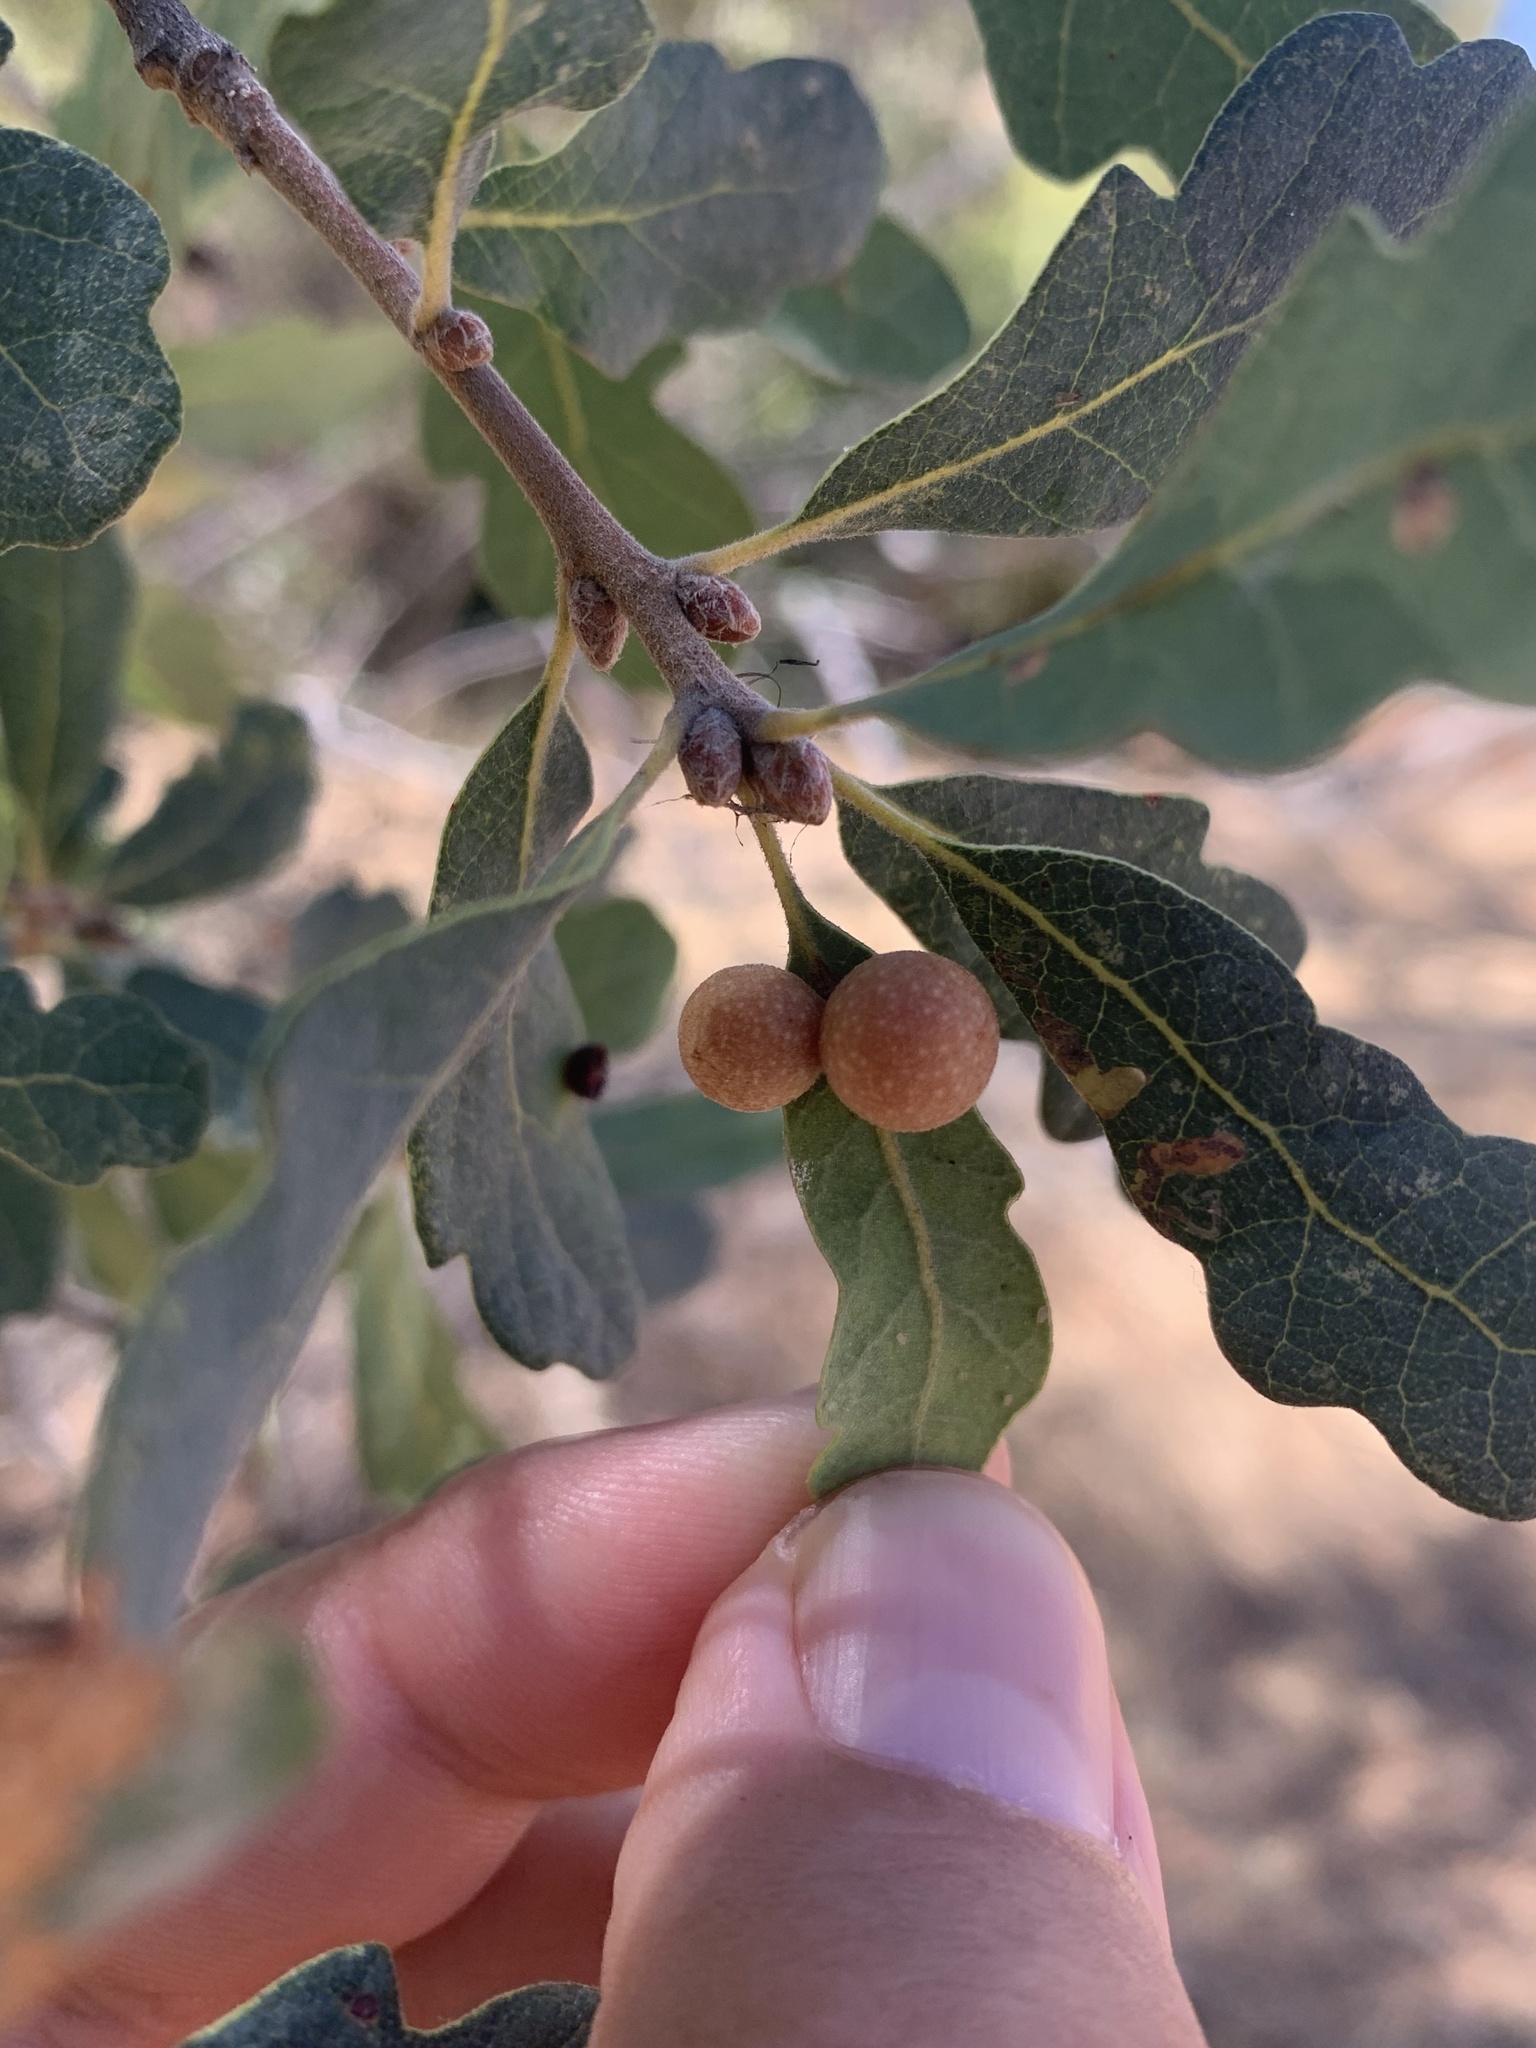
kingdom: Animalia
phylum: Arthropoda
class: Insecta
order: Hymenoptera
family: Cynipidae
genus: Andricus
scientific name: Andricus
